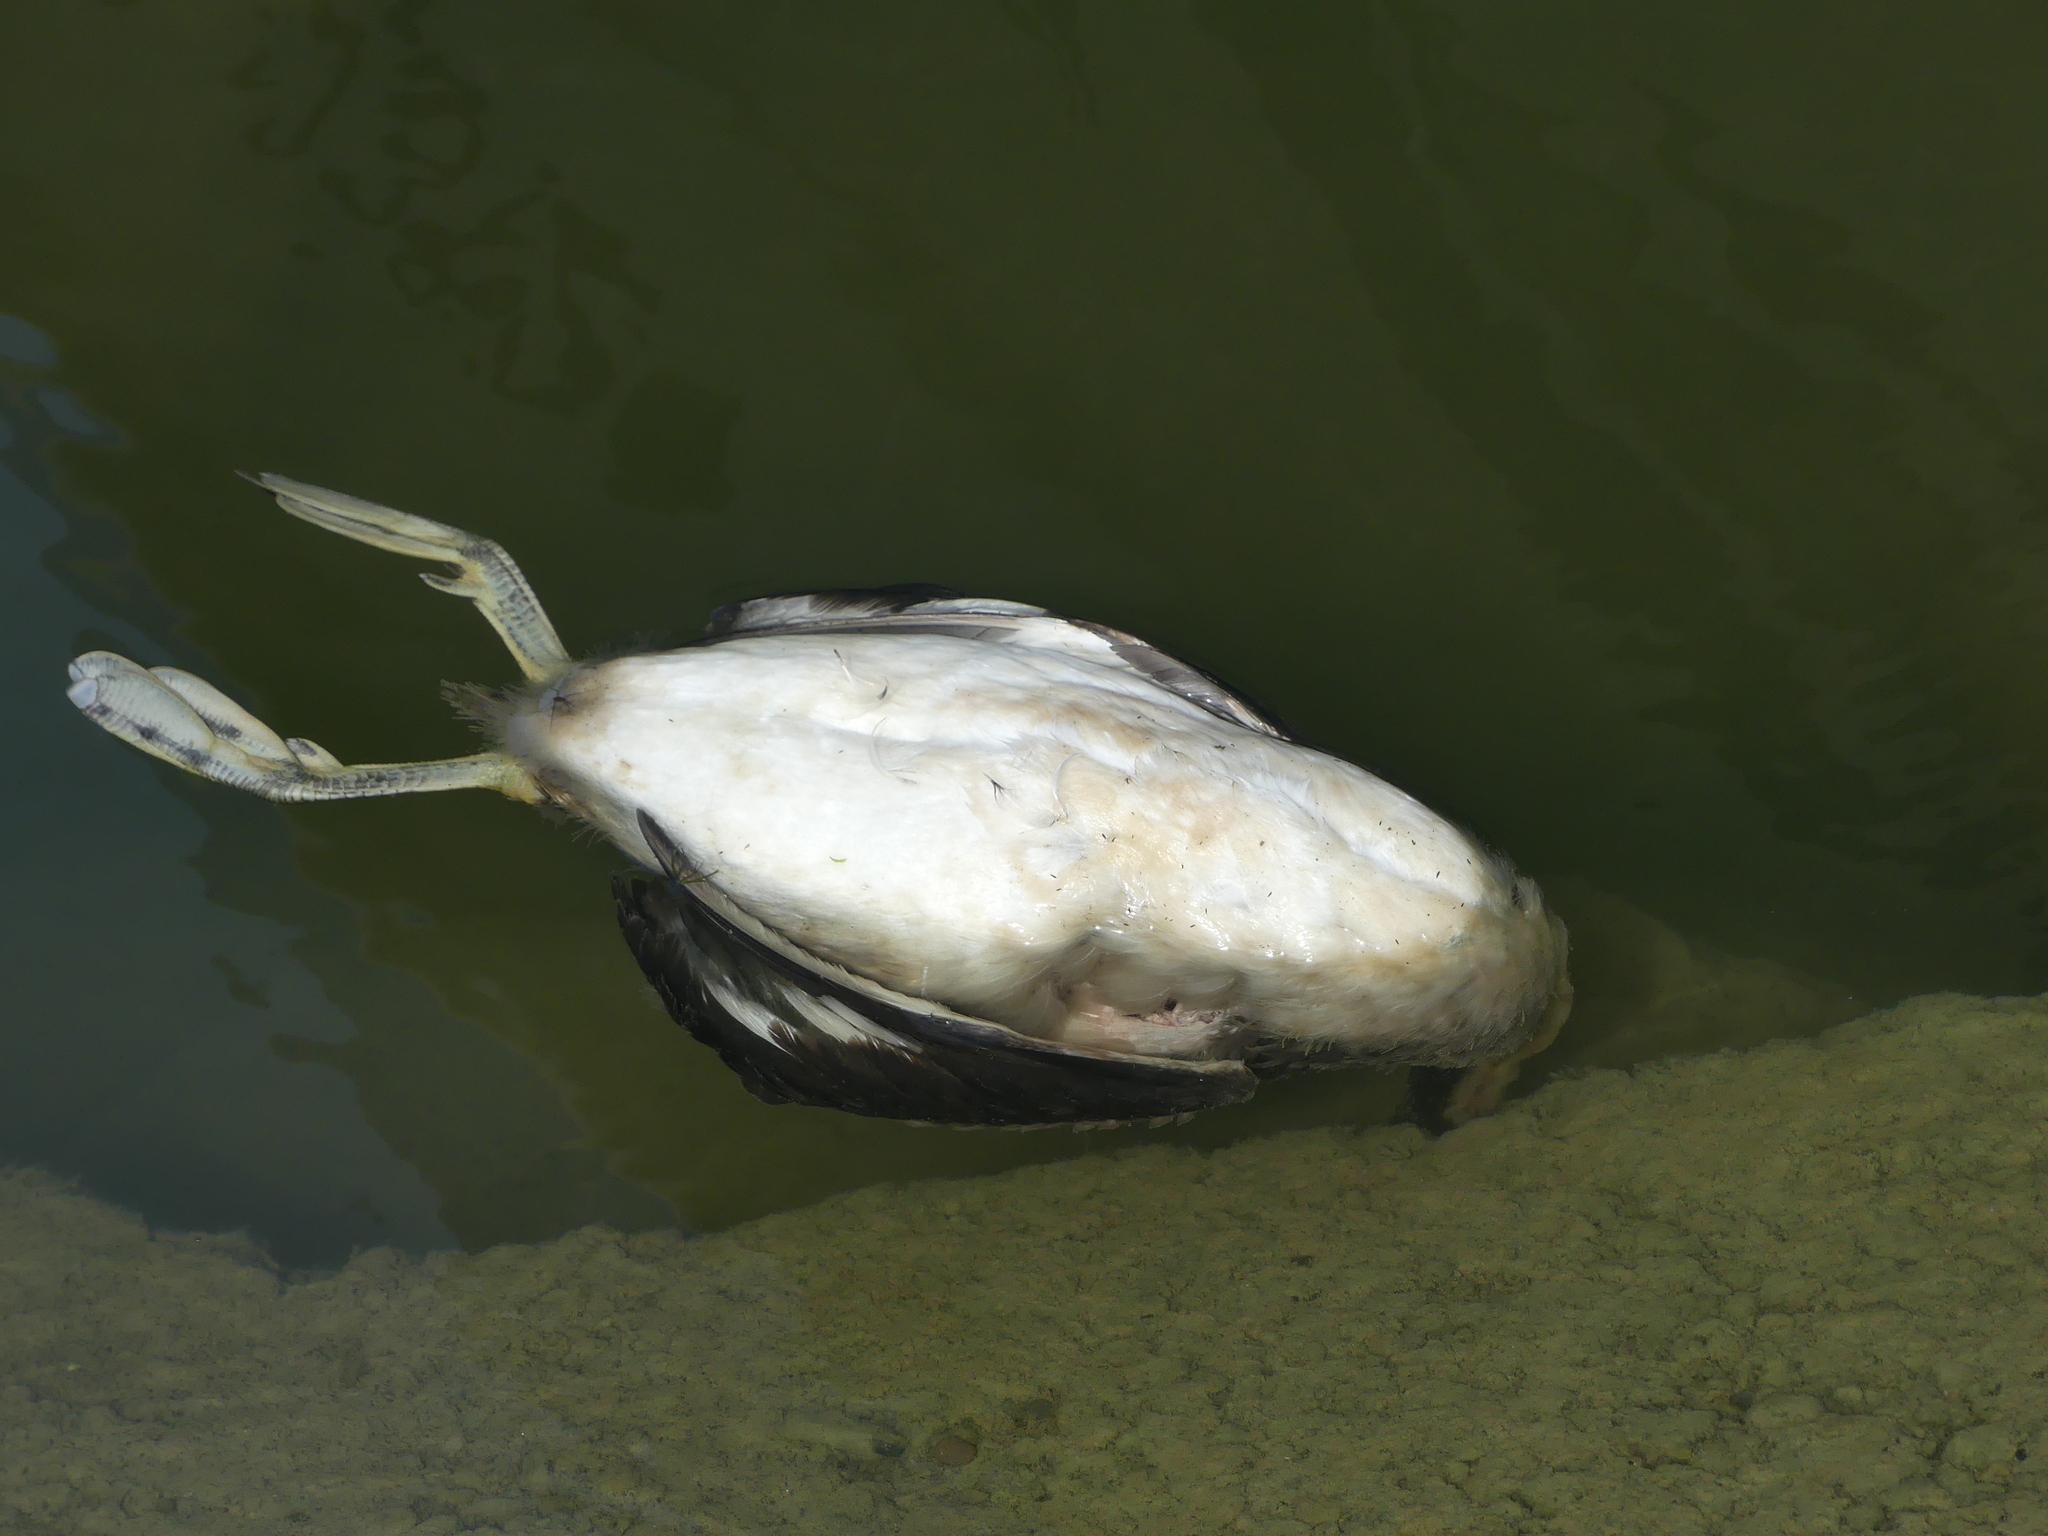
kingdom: Animalia
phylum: Chordata
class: Aves
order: Podicipediformes
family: Podicipedidae
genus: Podiceps
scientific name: Podiceps cristatus
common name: Great crested grebe
